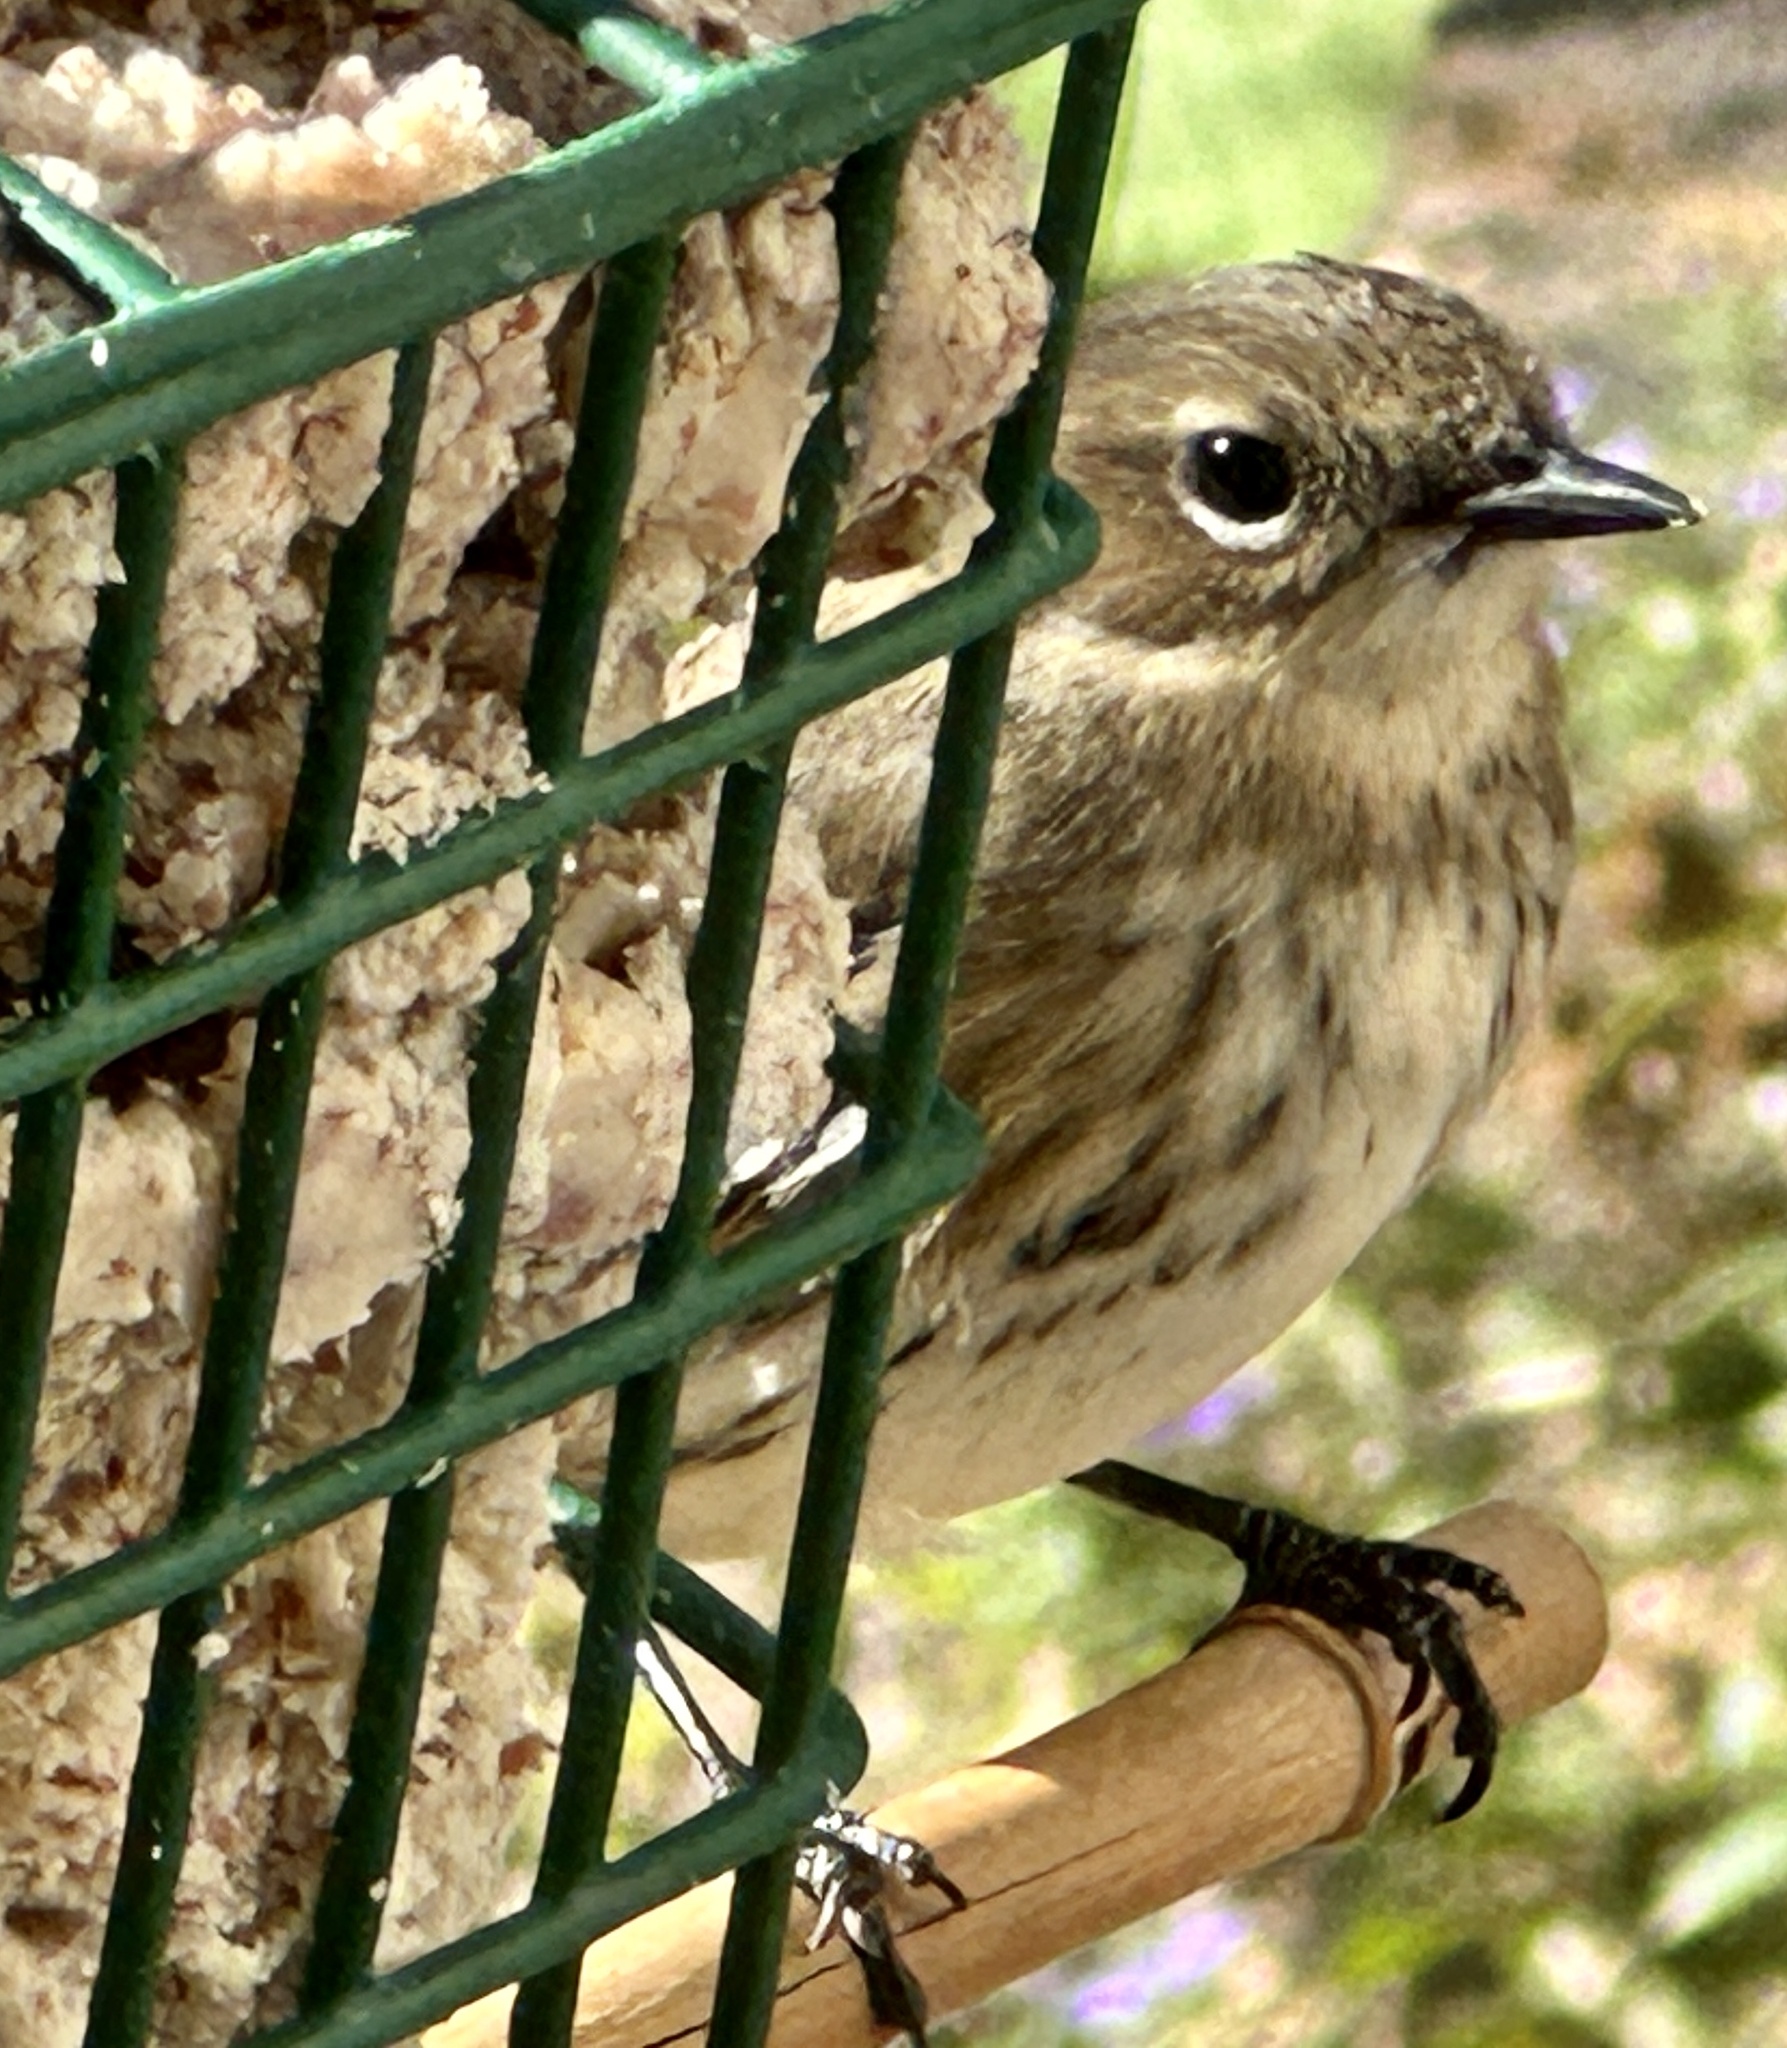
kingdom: Animalia
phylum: Chordata
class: Aves
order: Passeriformes
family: Parulidae
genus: Setophaga
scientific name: Setophaga coronata
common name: Myrtle warbler
